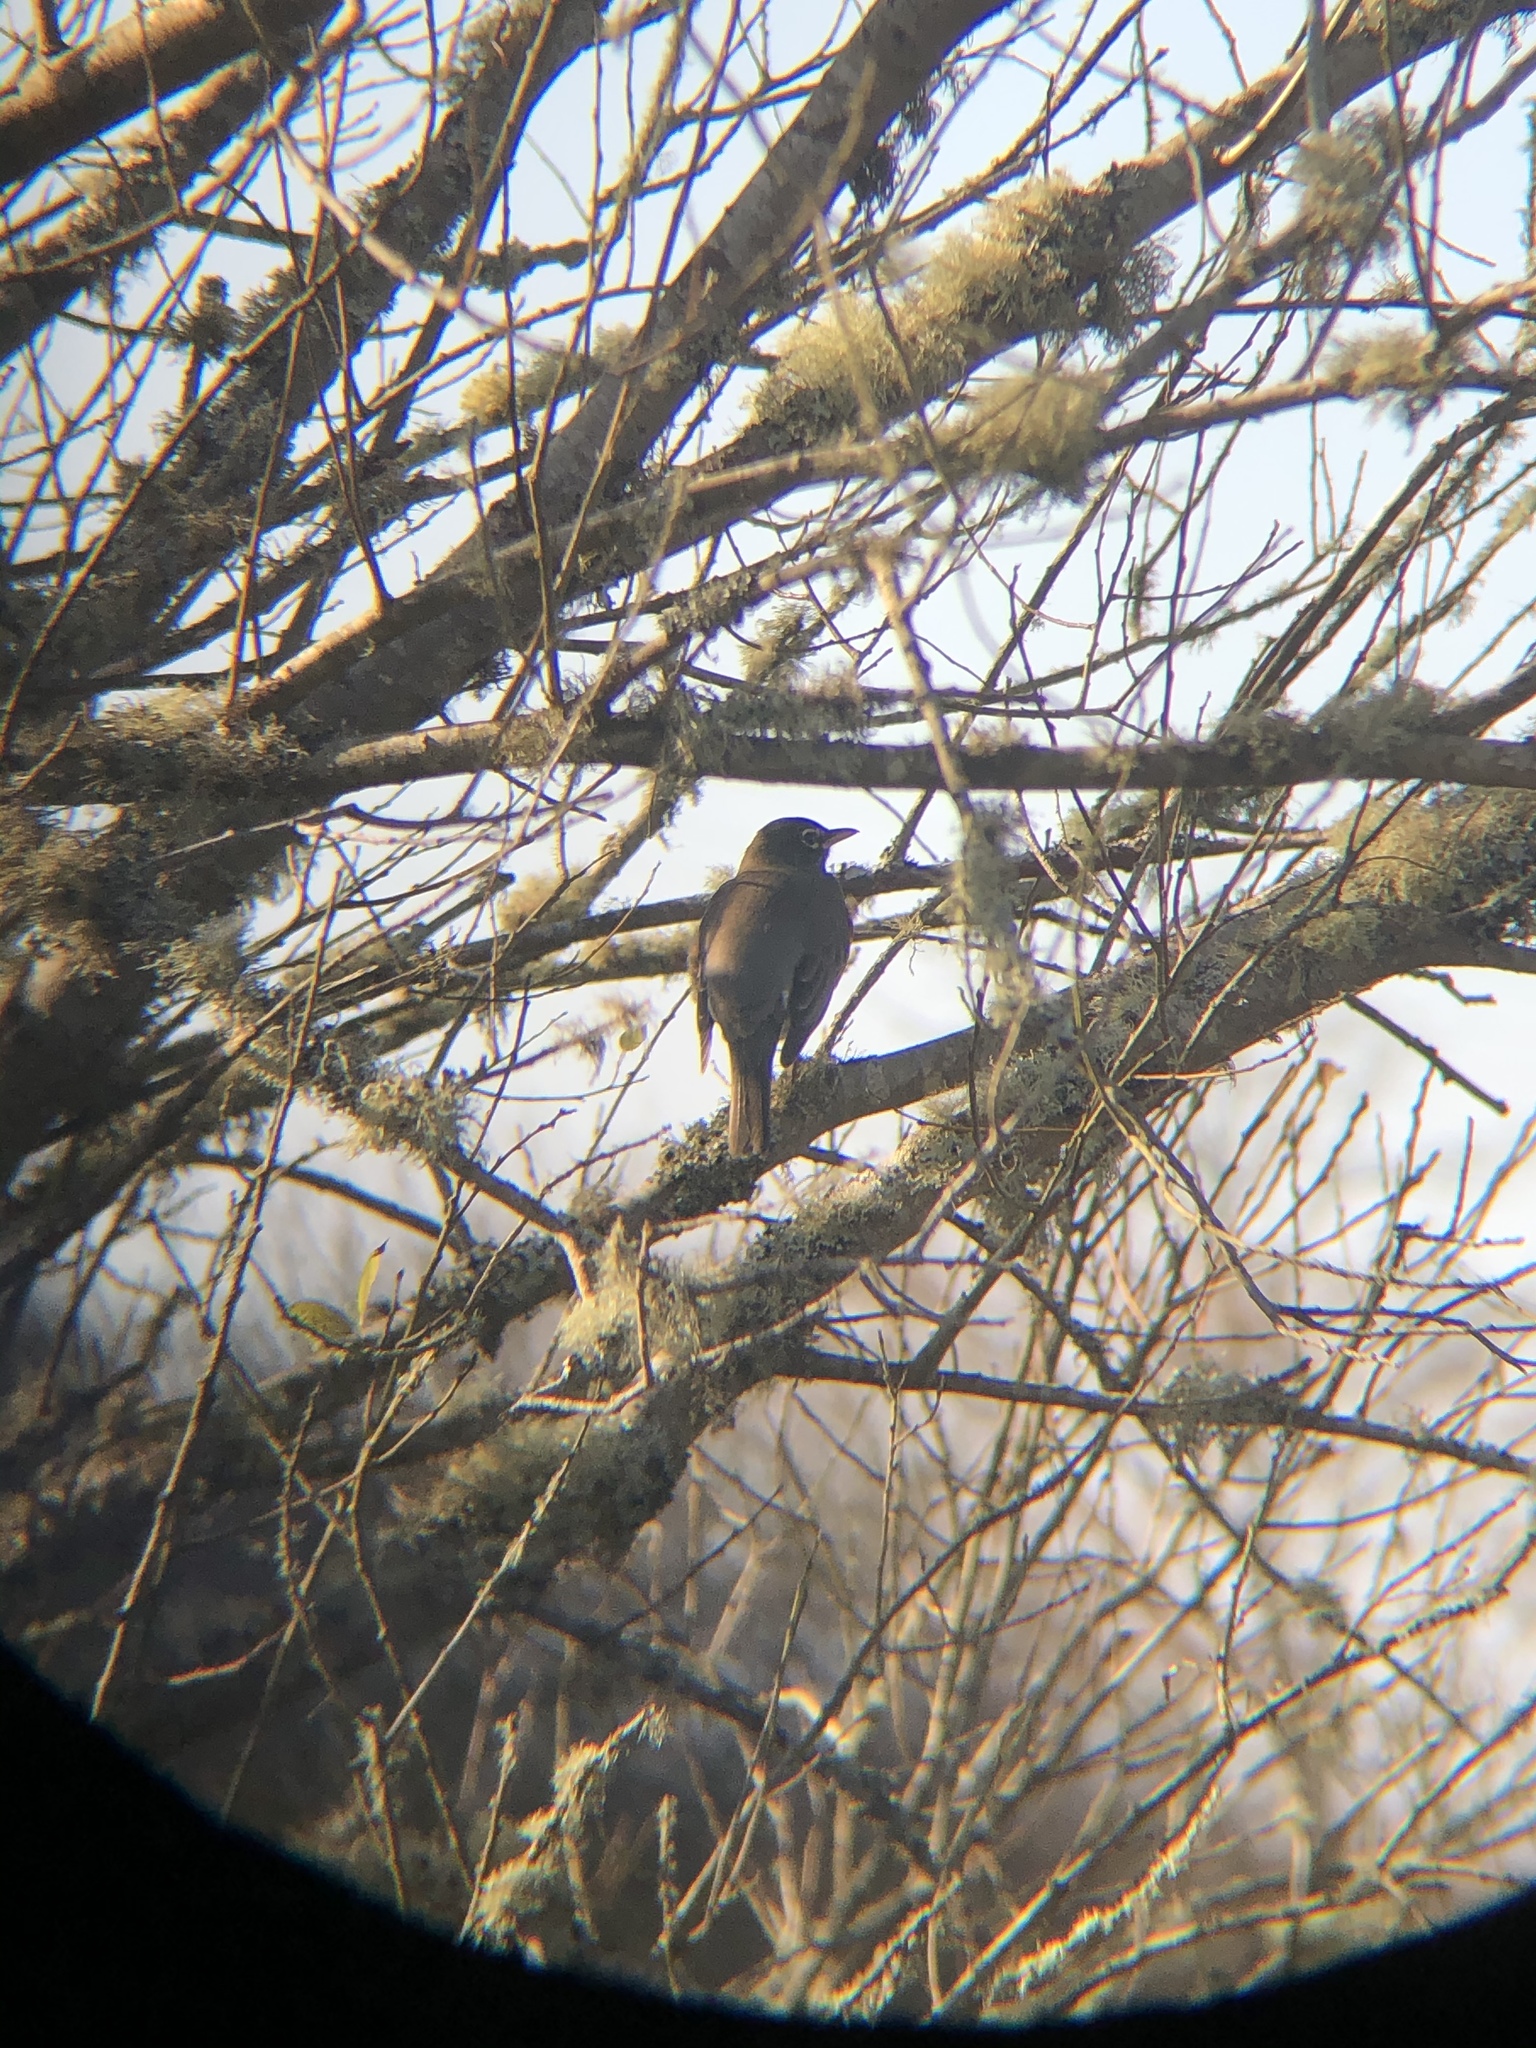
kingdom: Animalia
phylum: Chordata
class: Aves
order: Passeriformes
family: Turdidae
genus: Turdus
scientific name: Turdus migratorius
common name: American robin
